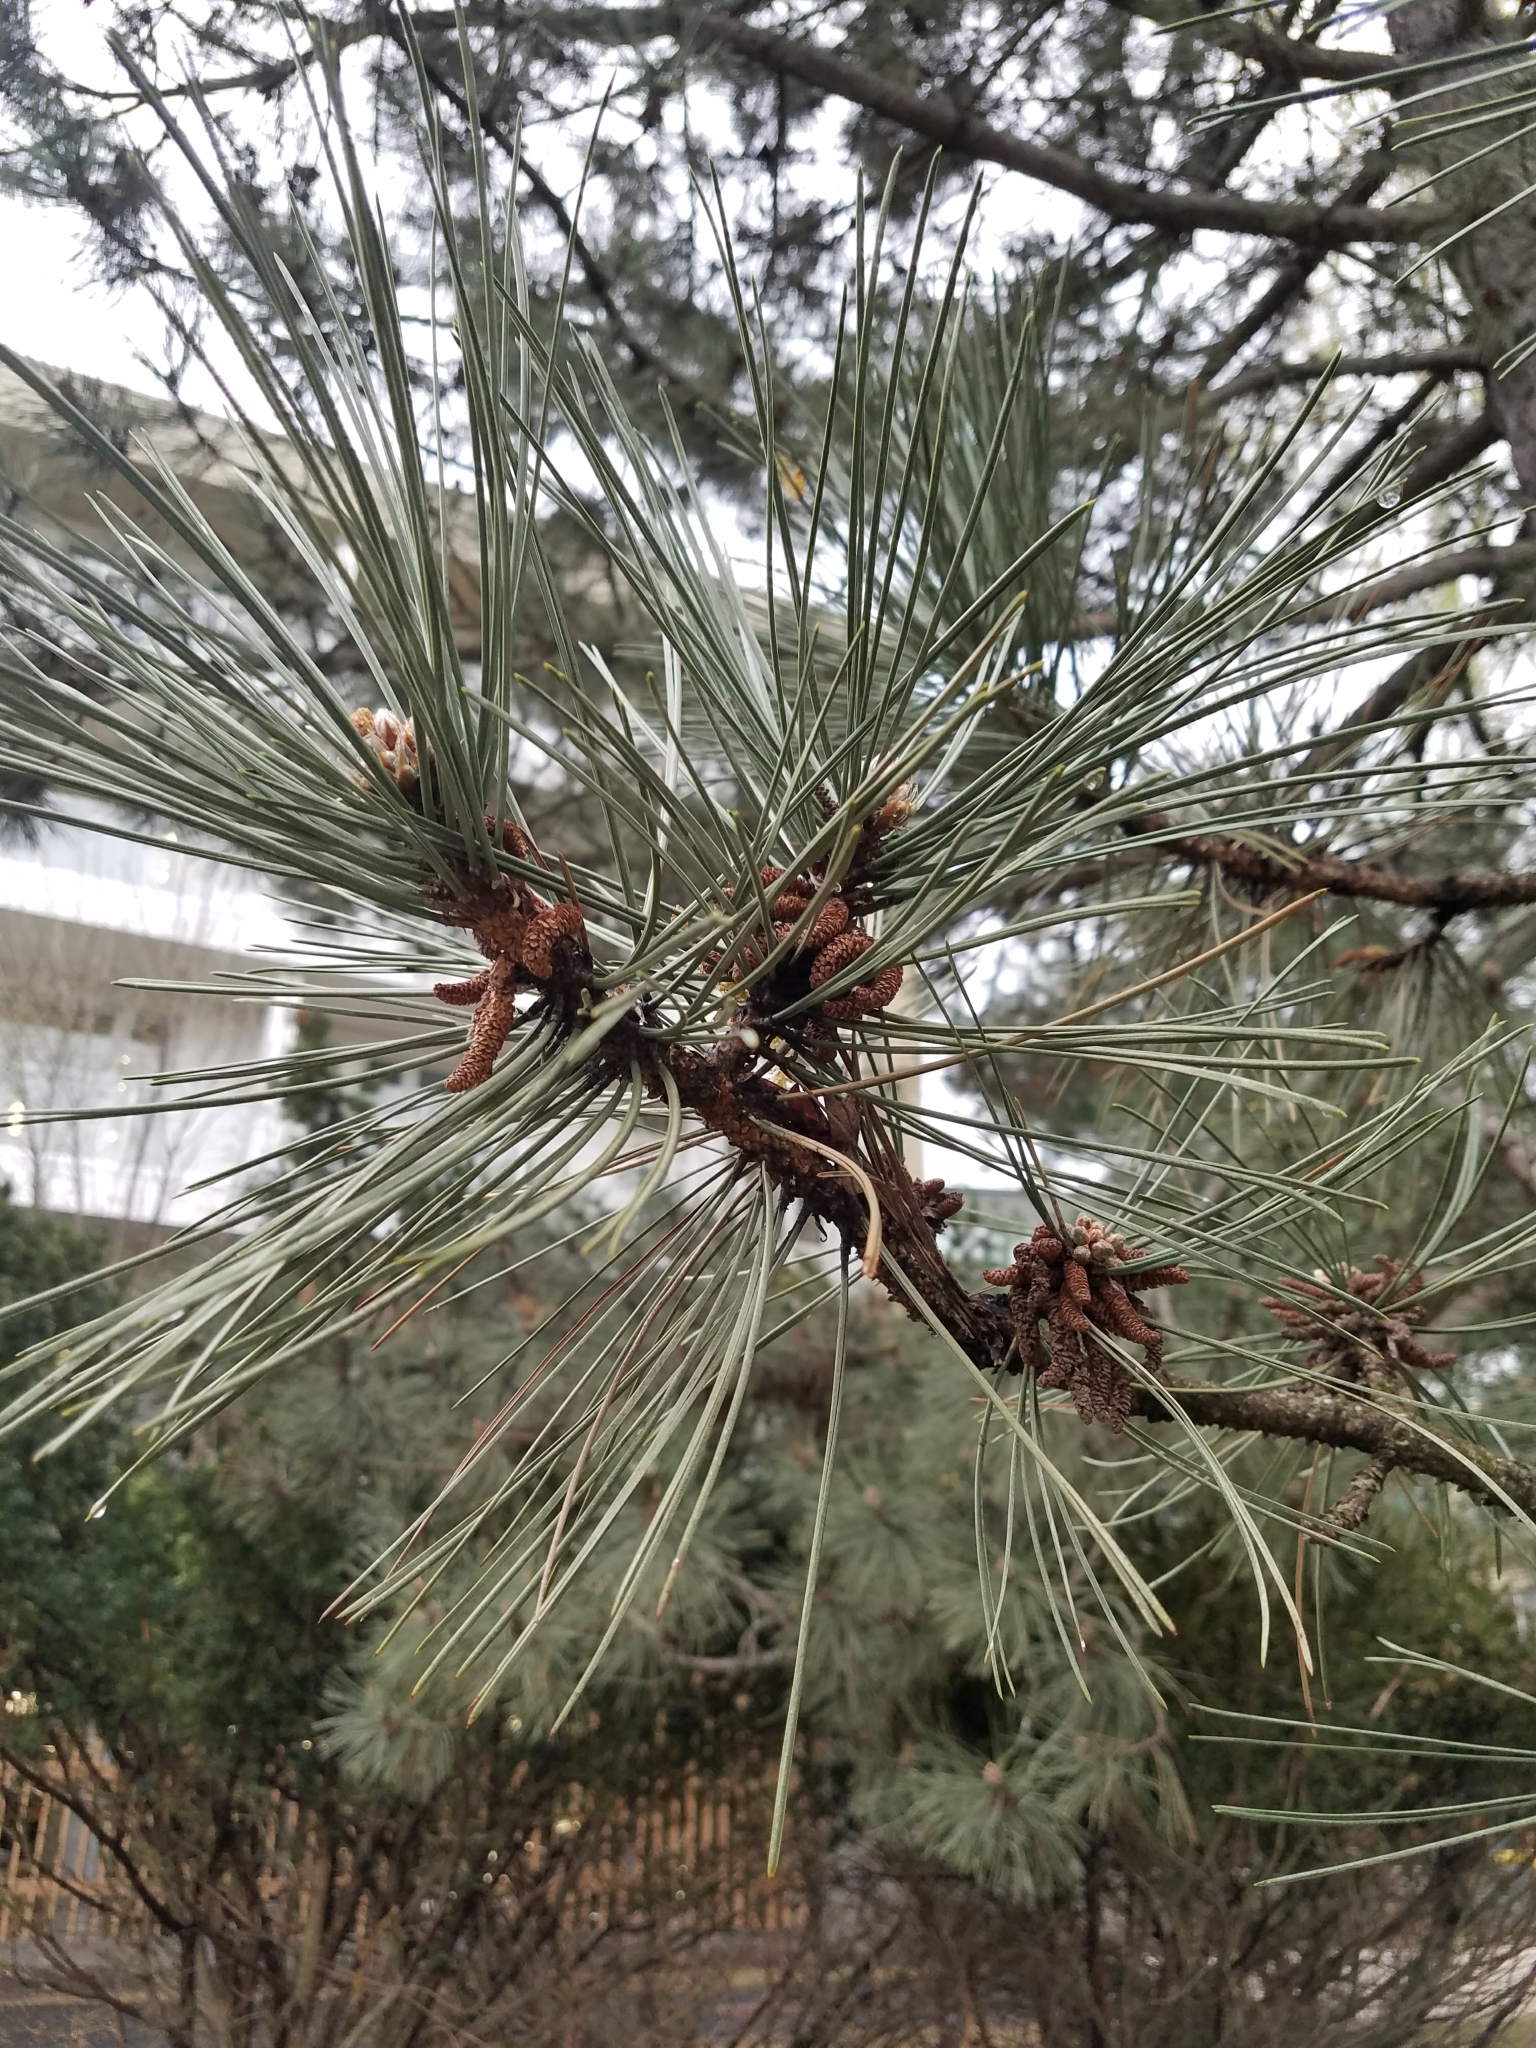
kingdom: Plantae
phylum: Tracheophyta
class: Pinopsida
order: Pinales
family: Pinaceae
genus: Pinus
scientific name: Pinus resinosa
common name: Norway pine
